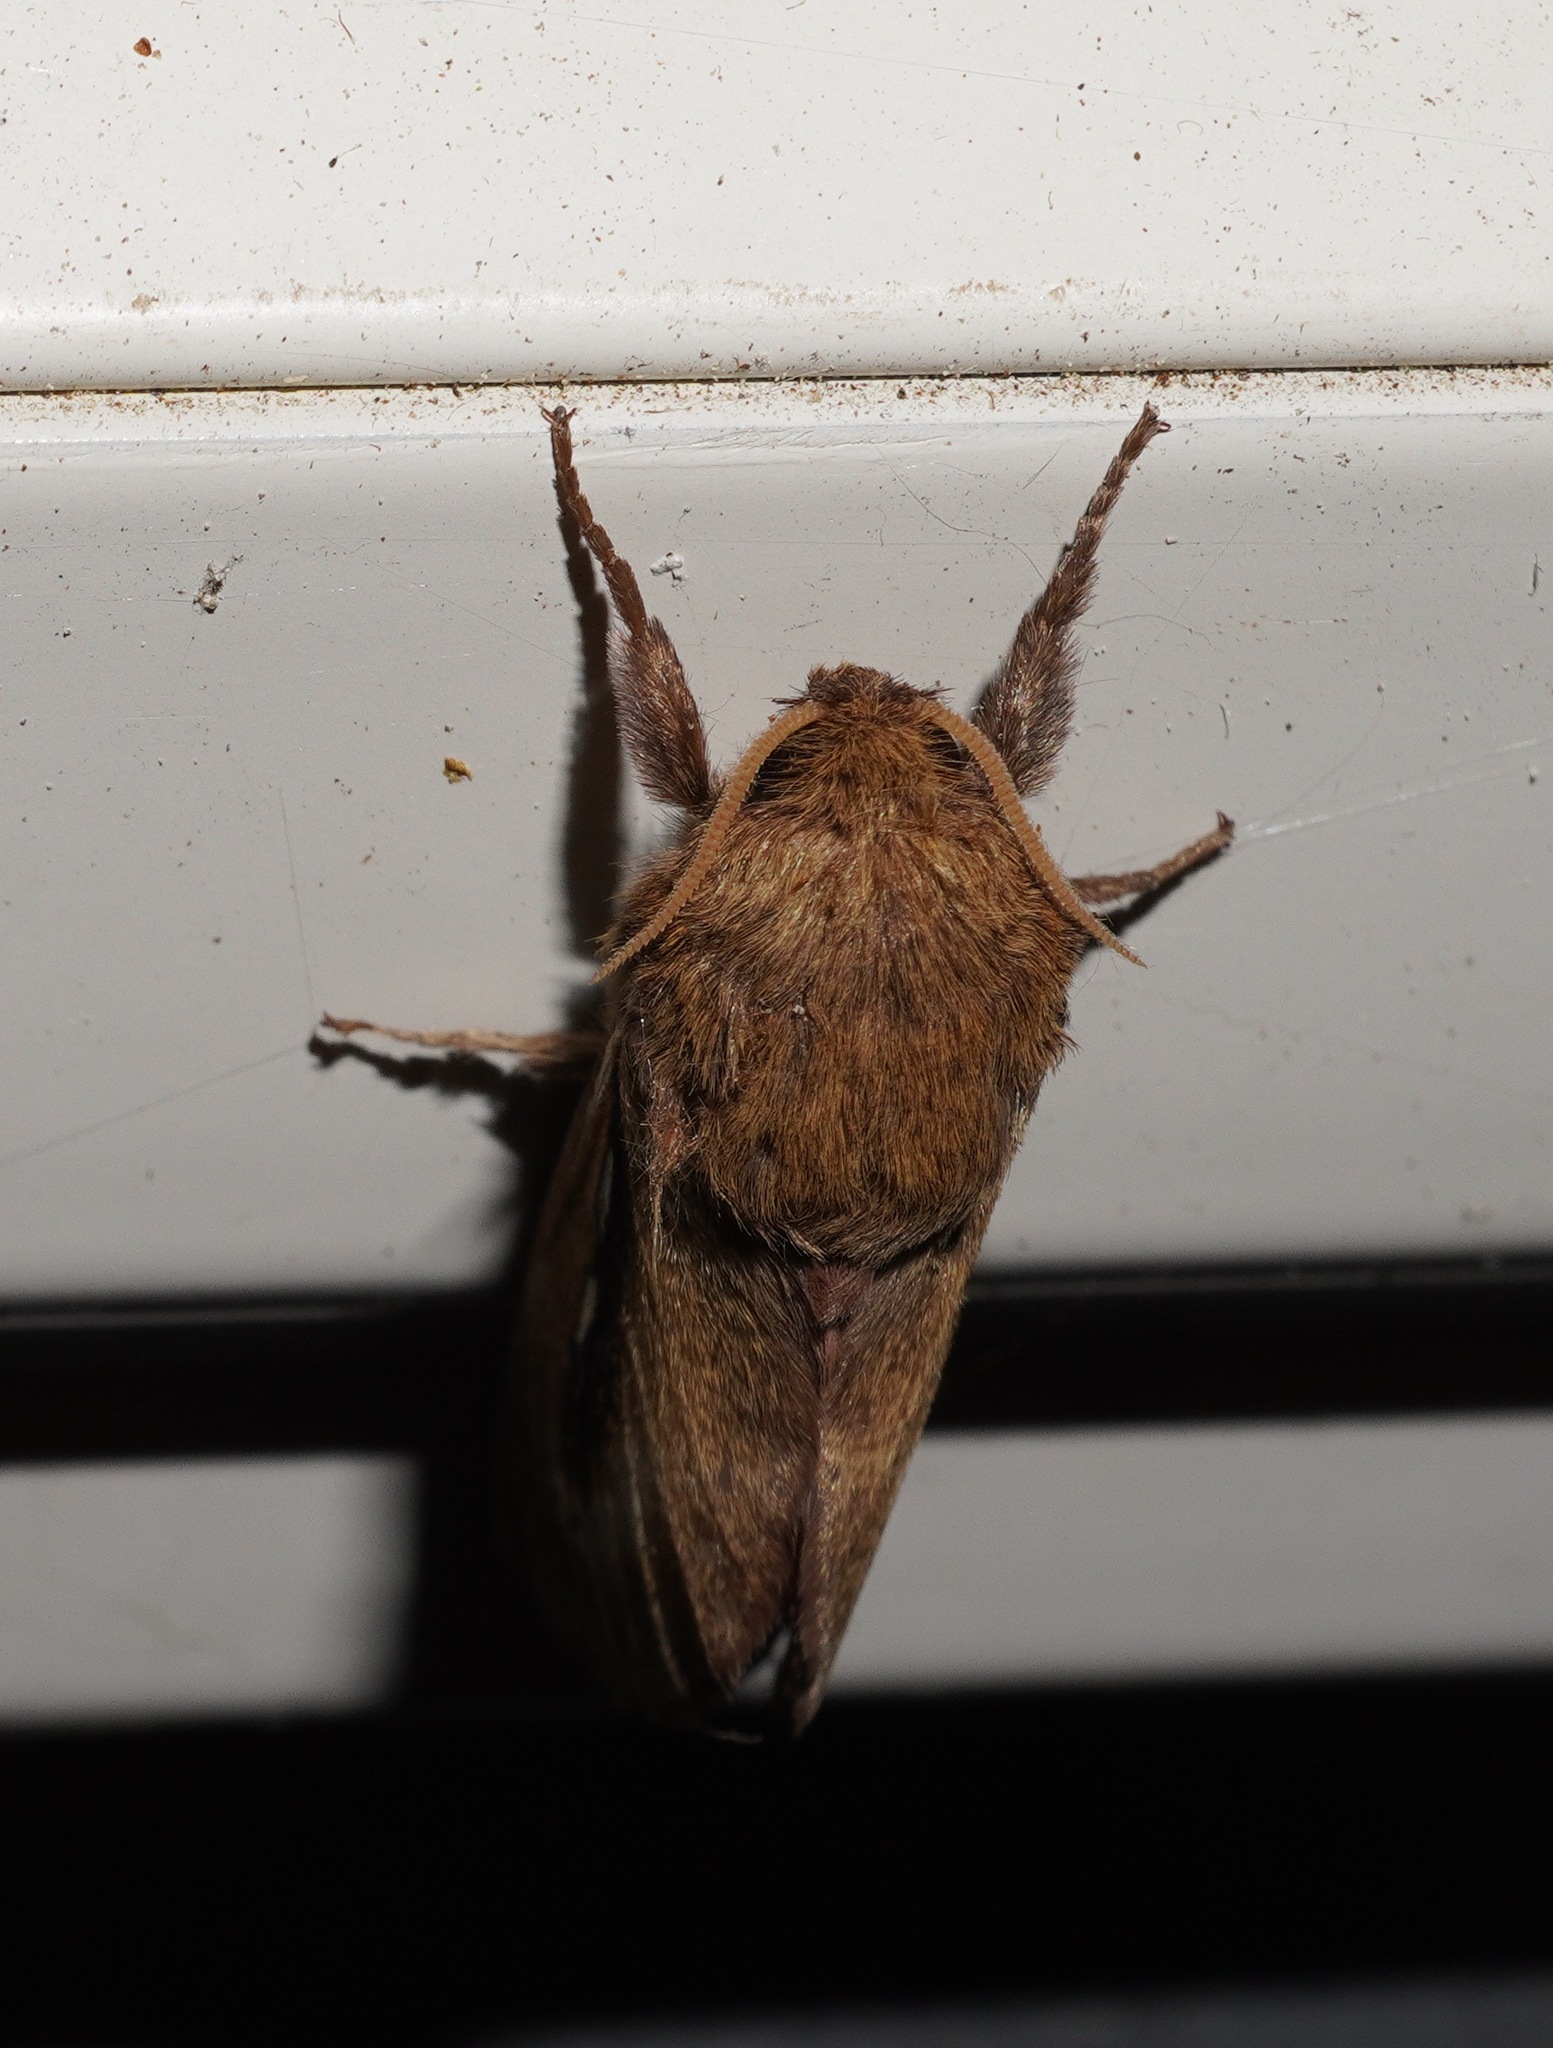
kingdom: Animalia
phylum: Arthropoda
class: Insecta
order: Lepidoptera
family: Hepialidae
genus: Wiseana
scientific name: Wiseana umbraculatus
